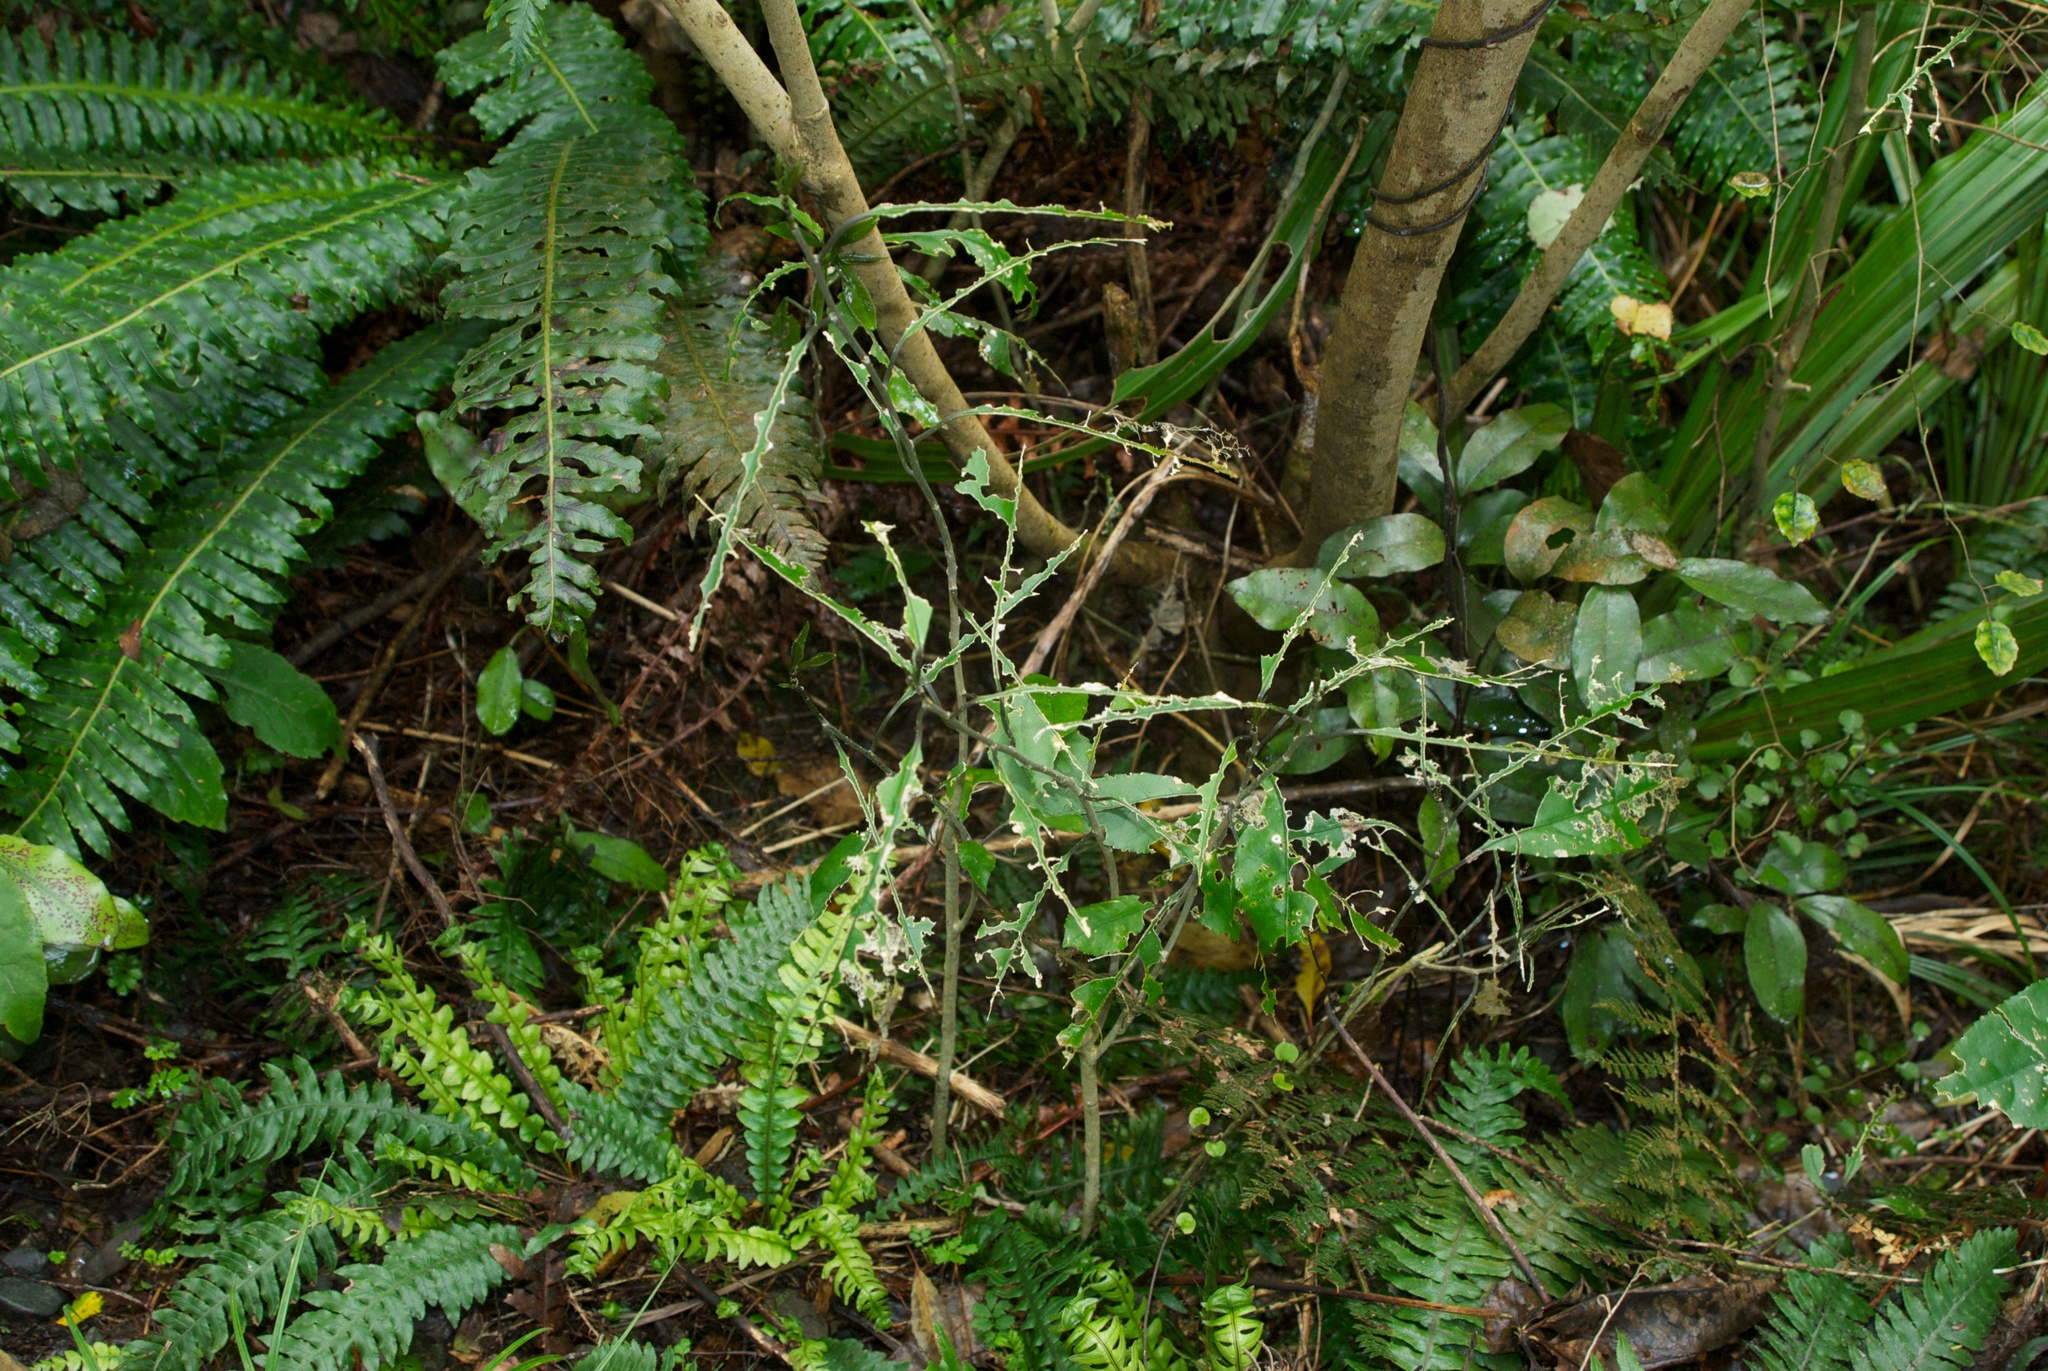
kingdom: Plantae
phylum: Tracheophyta
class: Magnoliopsida
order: Malpighiales
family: Violaceae
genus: Melicytus
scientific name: Melicytus ramiflorus
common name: Mahoe
